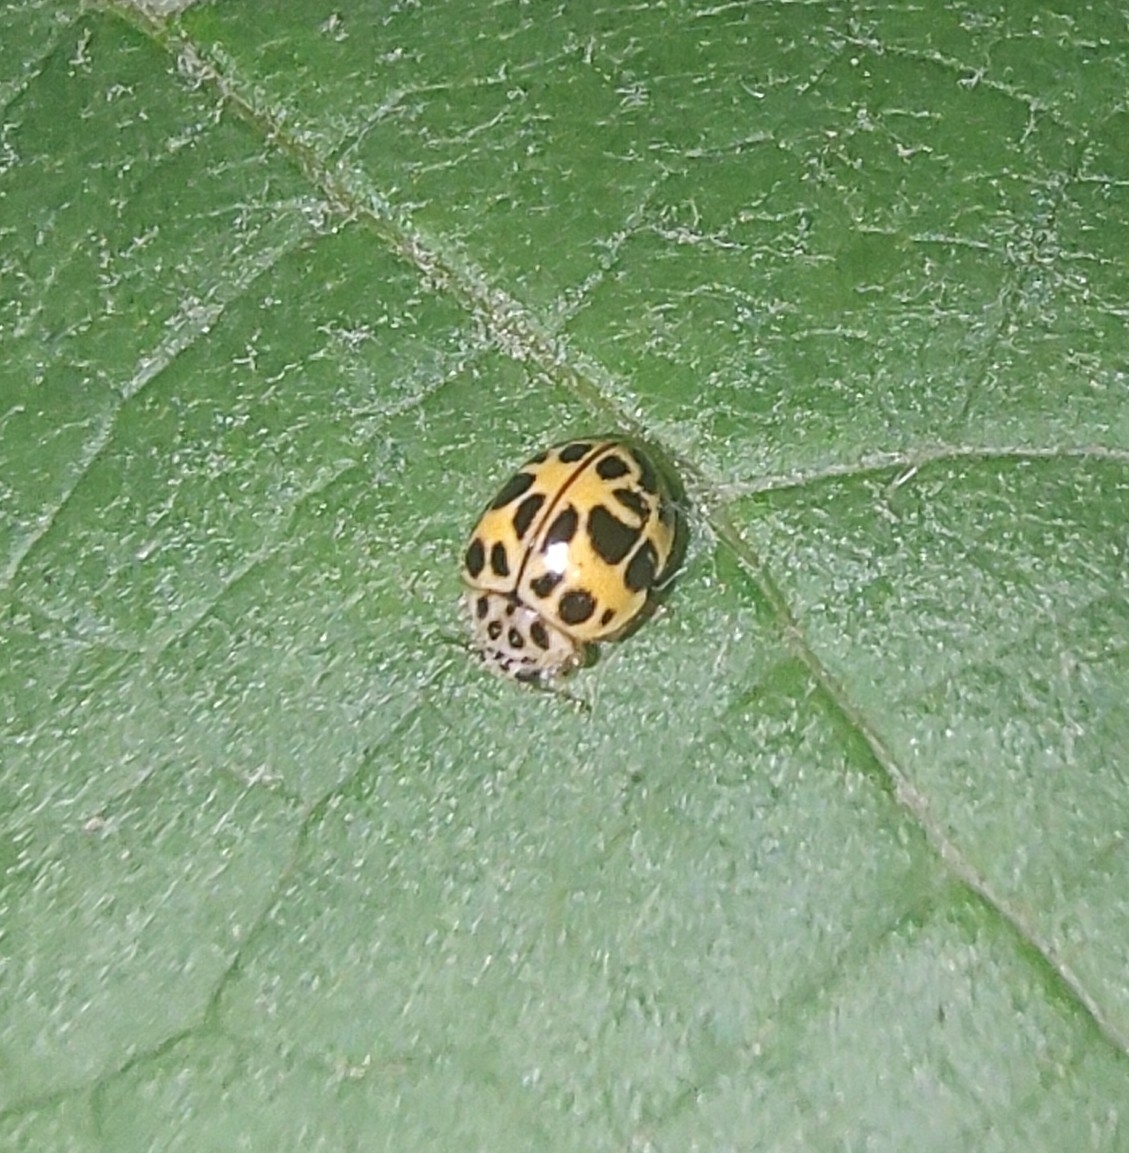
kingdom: Animalia
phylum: Arthropoda
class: Insecta
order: Coleoptera
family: Coccinellidae
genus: Psyllobora
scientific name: Psyllobora
